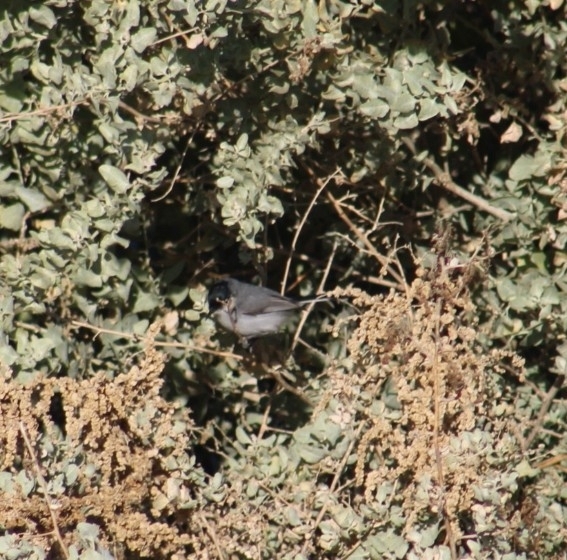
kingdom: Animalia
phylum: Chordata
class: Aves
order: Passeriformes
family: Polioptilidae
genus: Polioptila
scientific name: Polioptila melanura
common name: Black-tailed gnatcatcher
